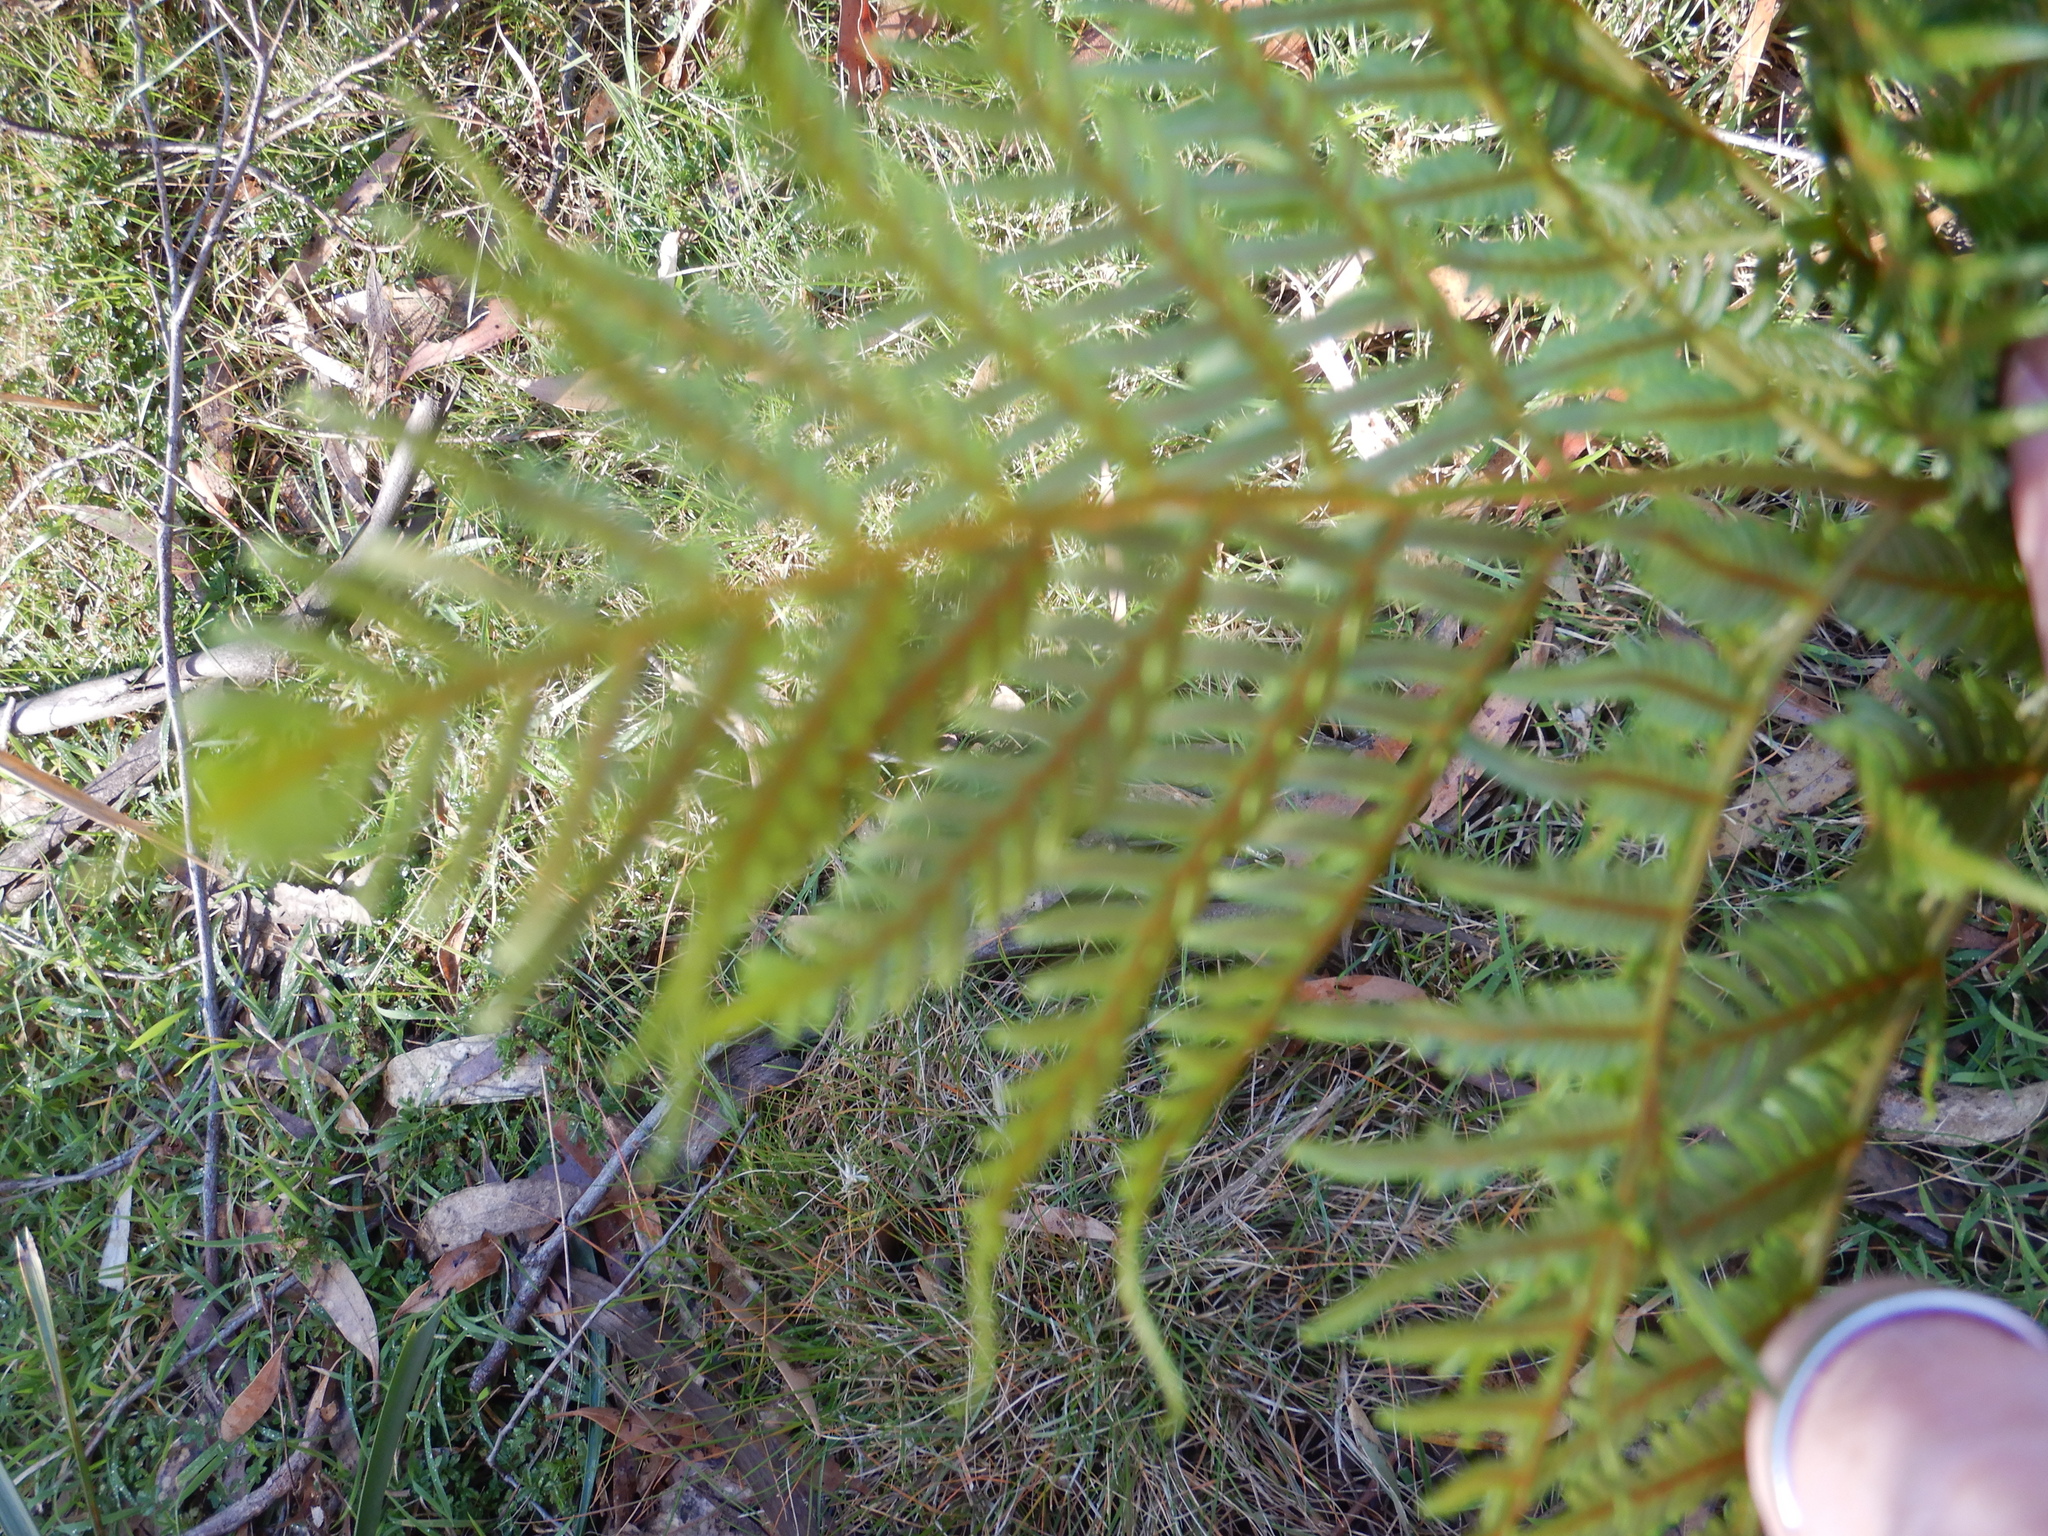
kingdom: Plantae
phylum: Tracheophyta
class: Polypodiopsida
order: Polypodiales
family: Dennstaedtiaceae
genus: Pteridium
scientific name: Pteridium esculentum
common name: Bracken fern
